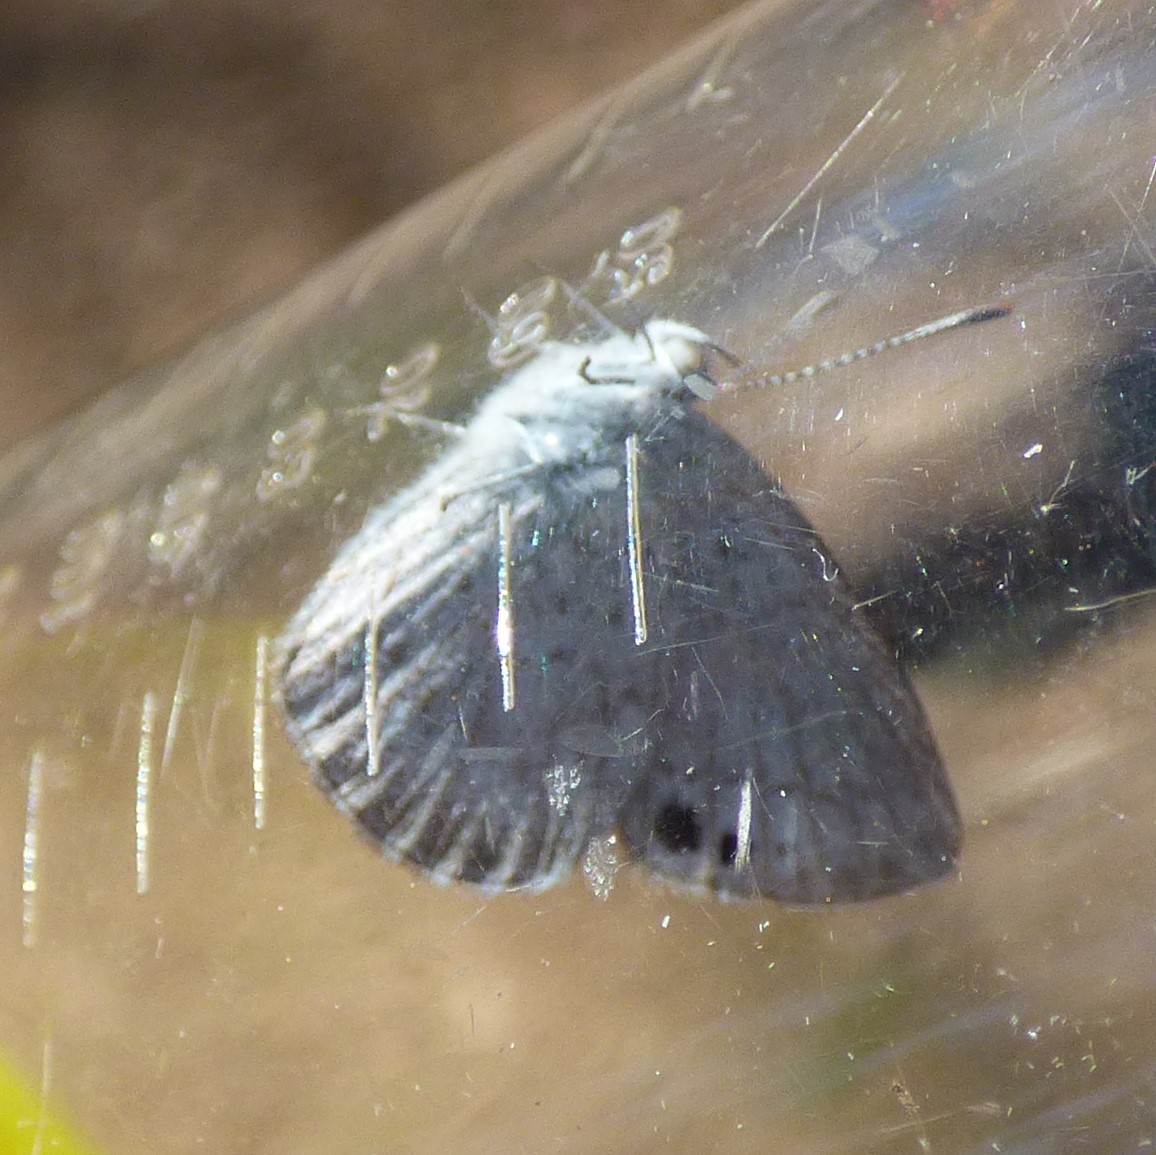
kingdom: Animalia
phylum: Arthropoda
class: Insecta
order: Lepidoptera
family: Lycaenidae
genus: Candalides
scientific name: Candalides
